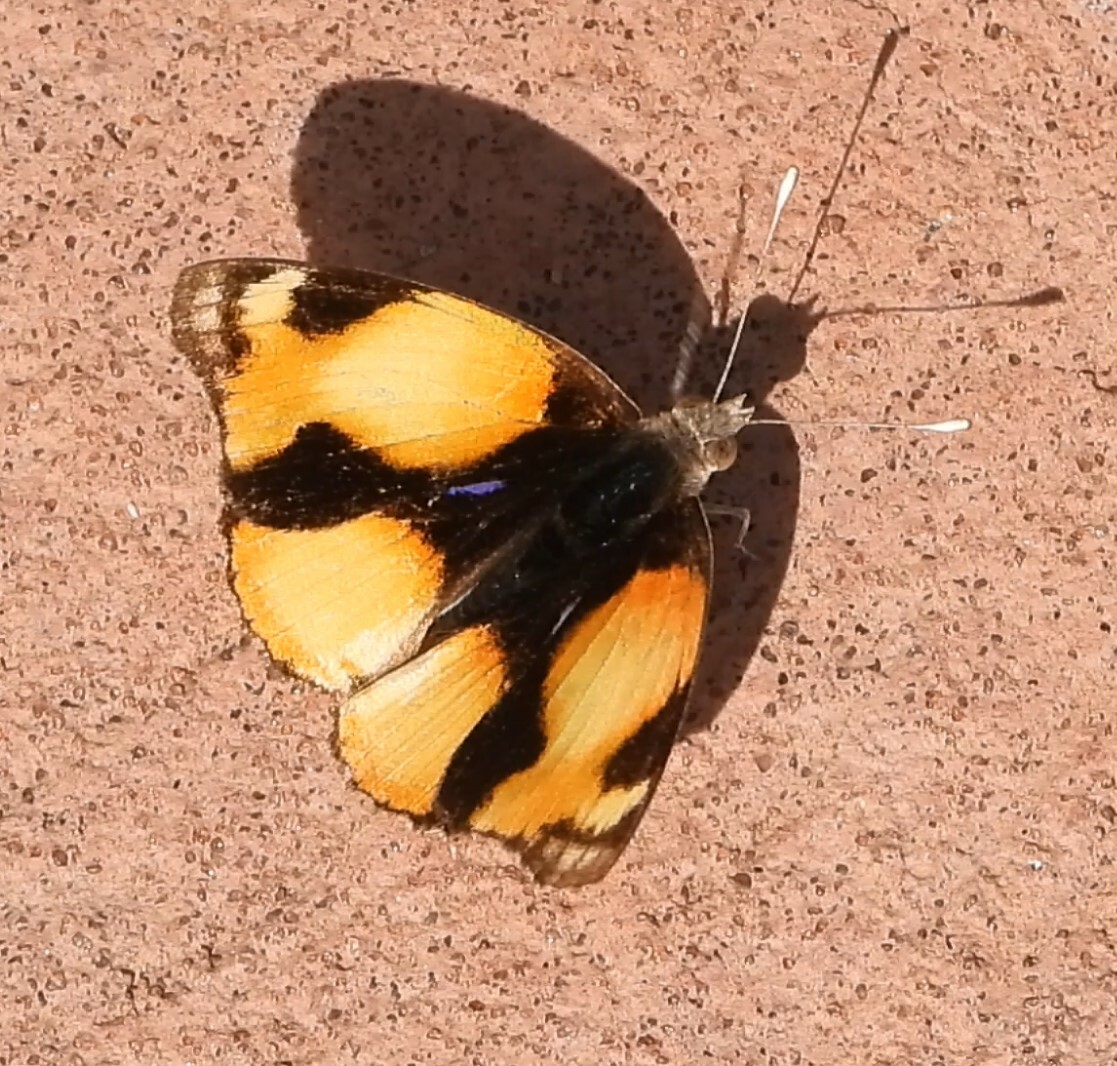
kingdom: Animalia
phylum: Arthropoda
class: Insecta
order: Lepidoptera
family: Nymphalidae
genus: Junonia
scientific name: Junonia hierta
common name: Yellow pansy
